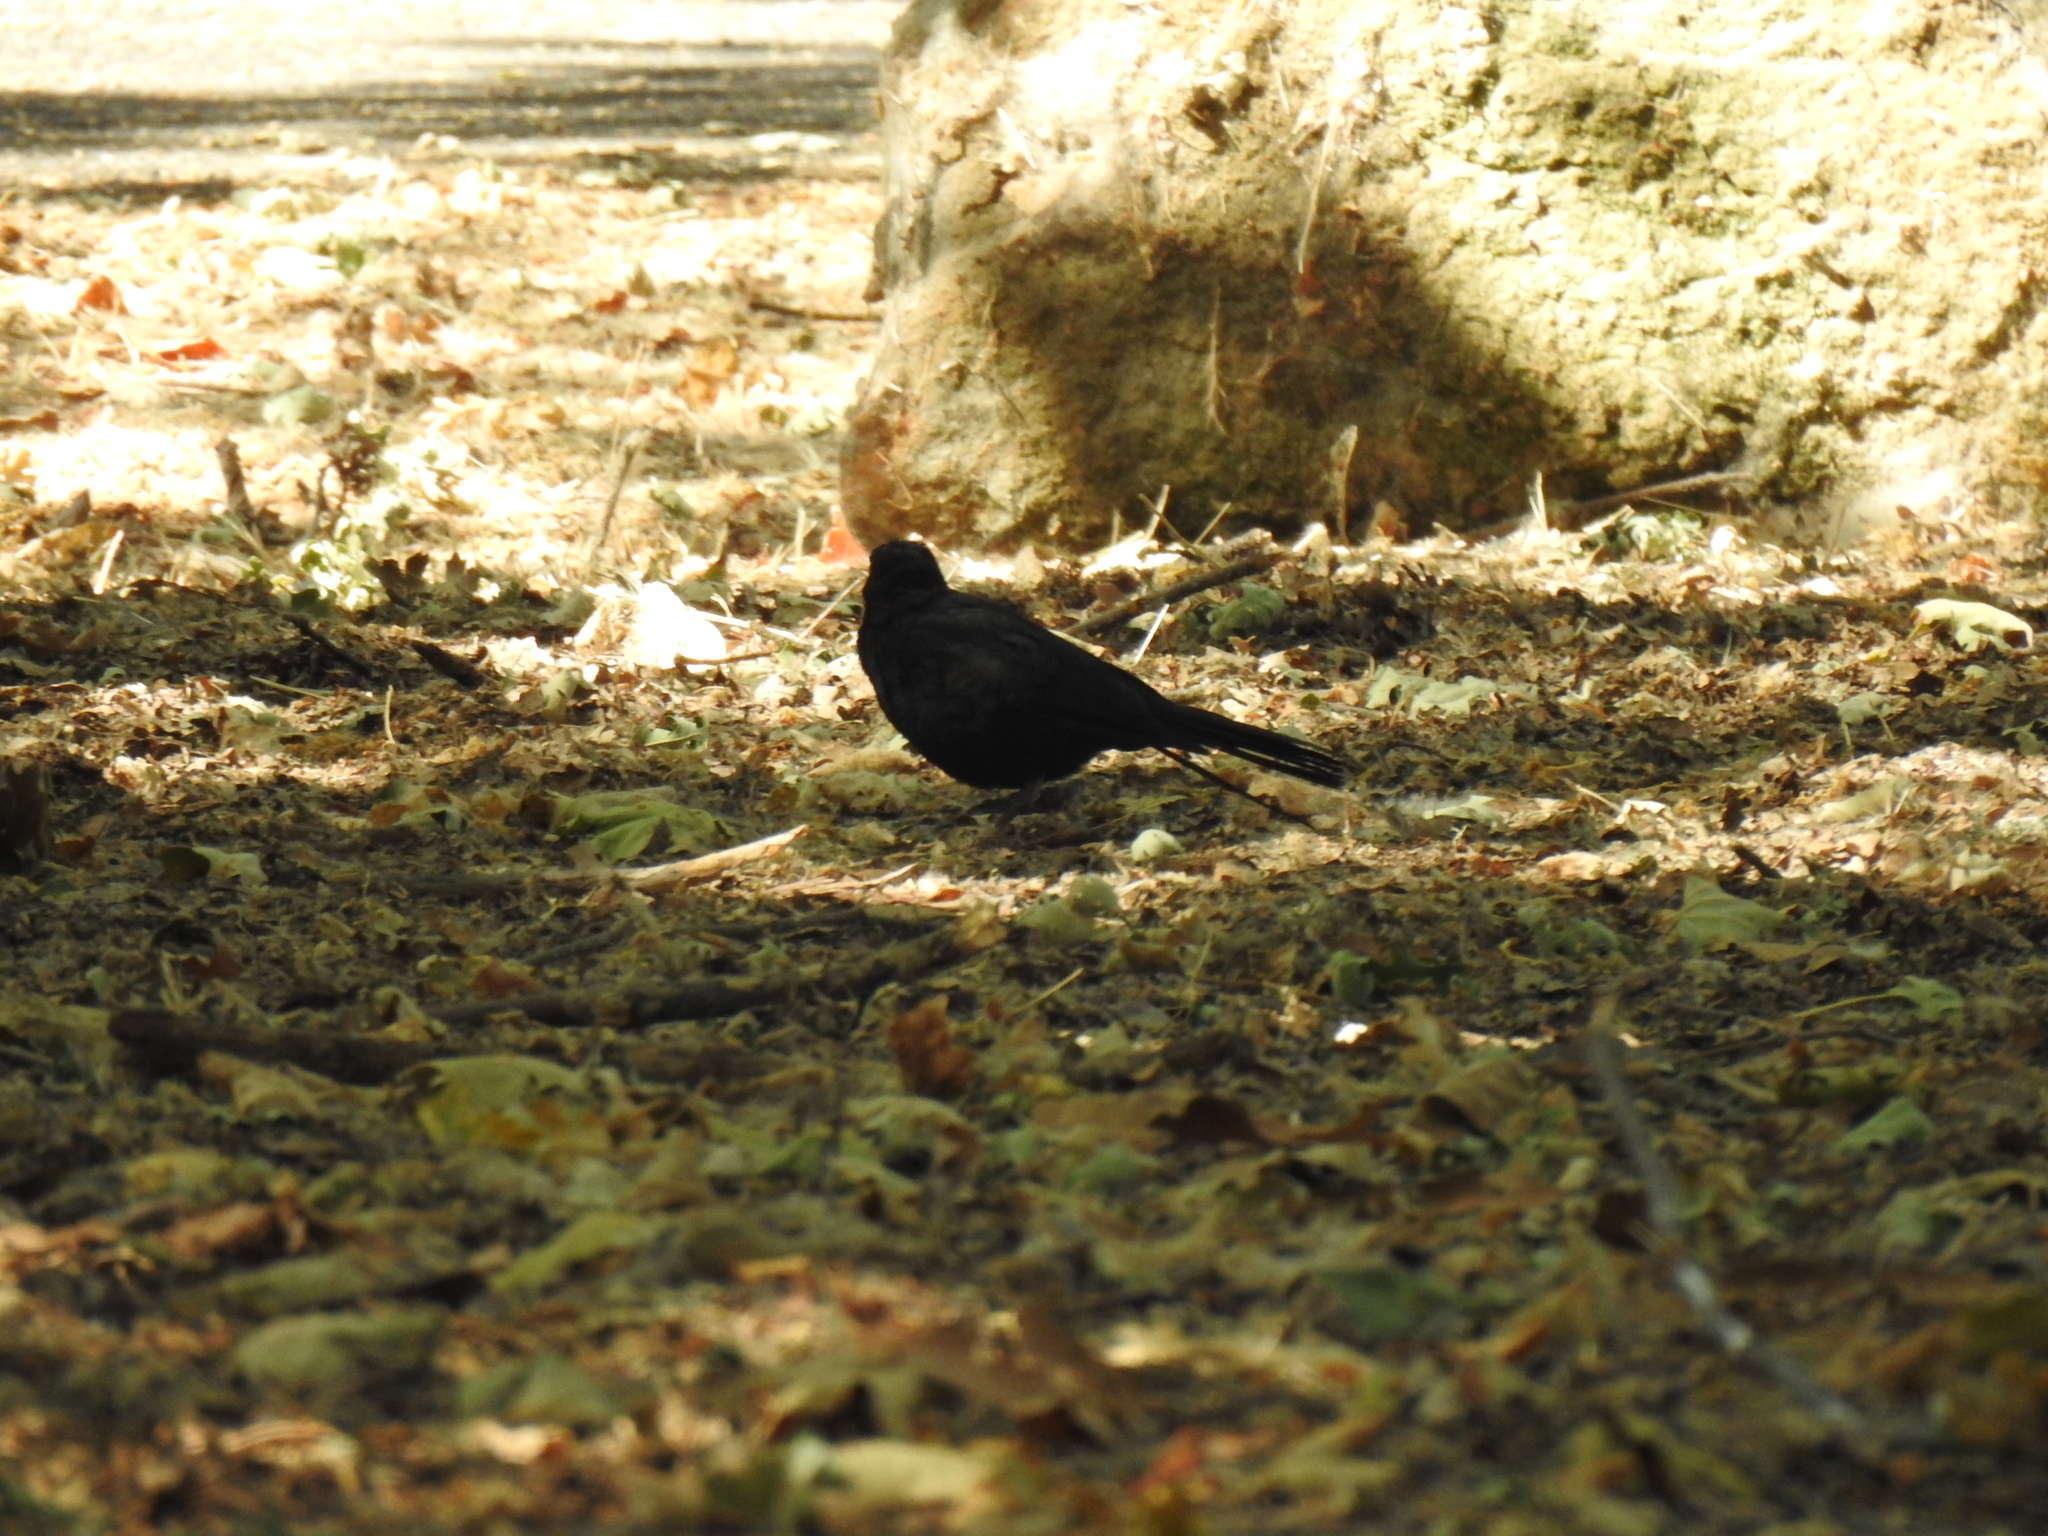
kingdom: Animalia
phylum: Chordata
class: Aves
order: Passeriformes
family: Icteridae
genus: Euphagus
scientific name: Euphagus cyanocephalus
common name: Brewer's blackbird
